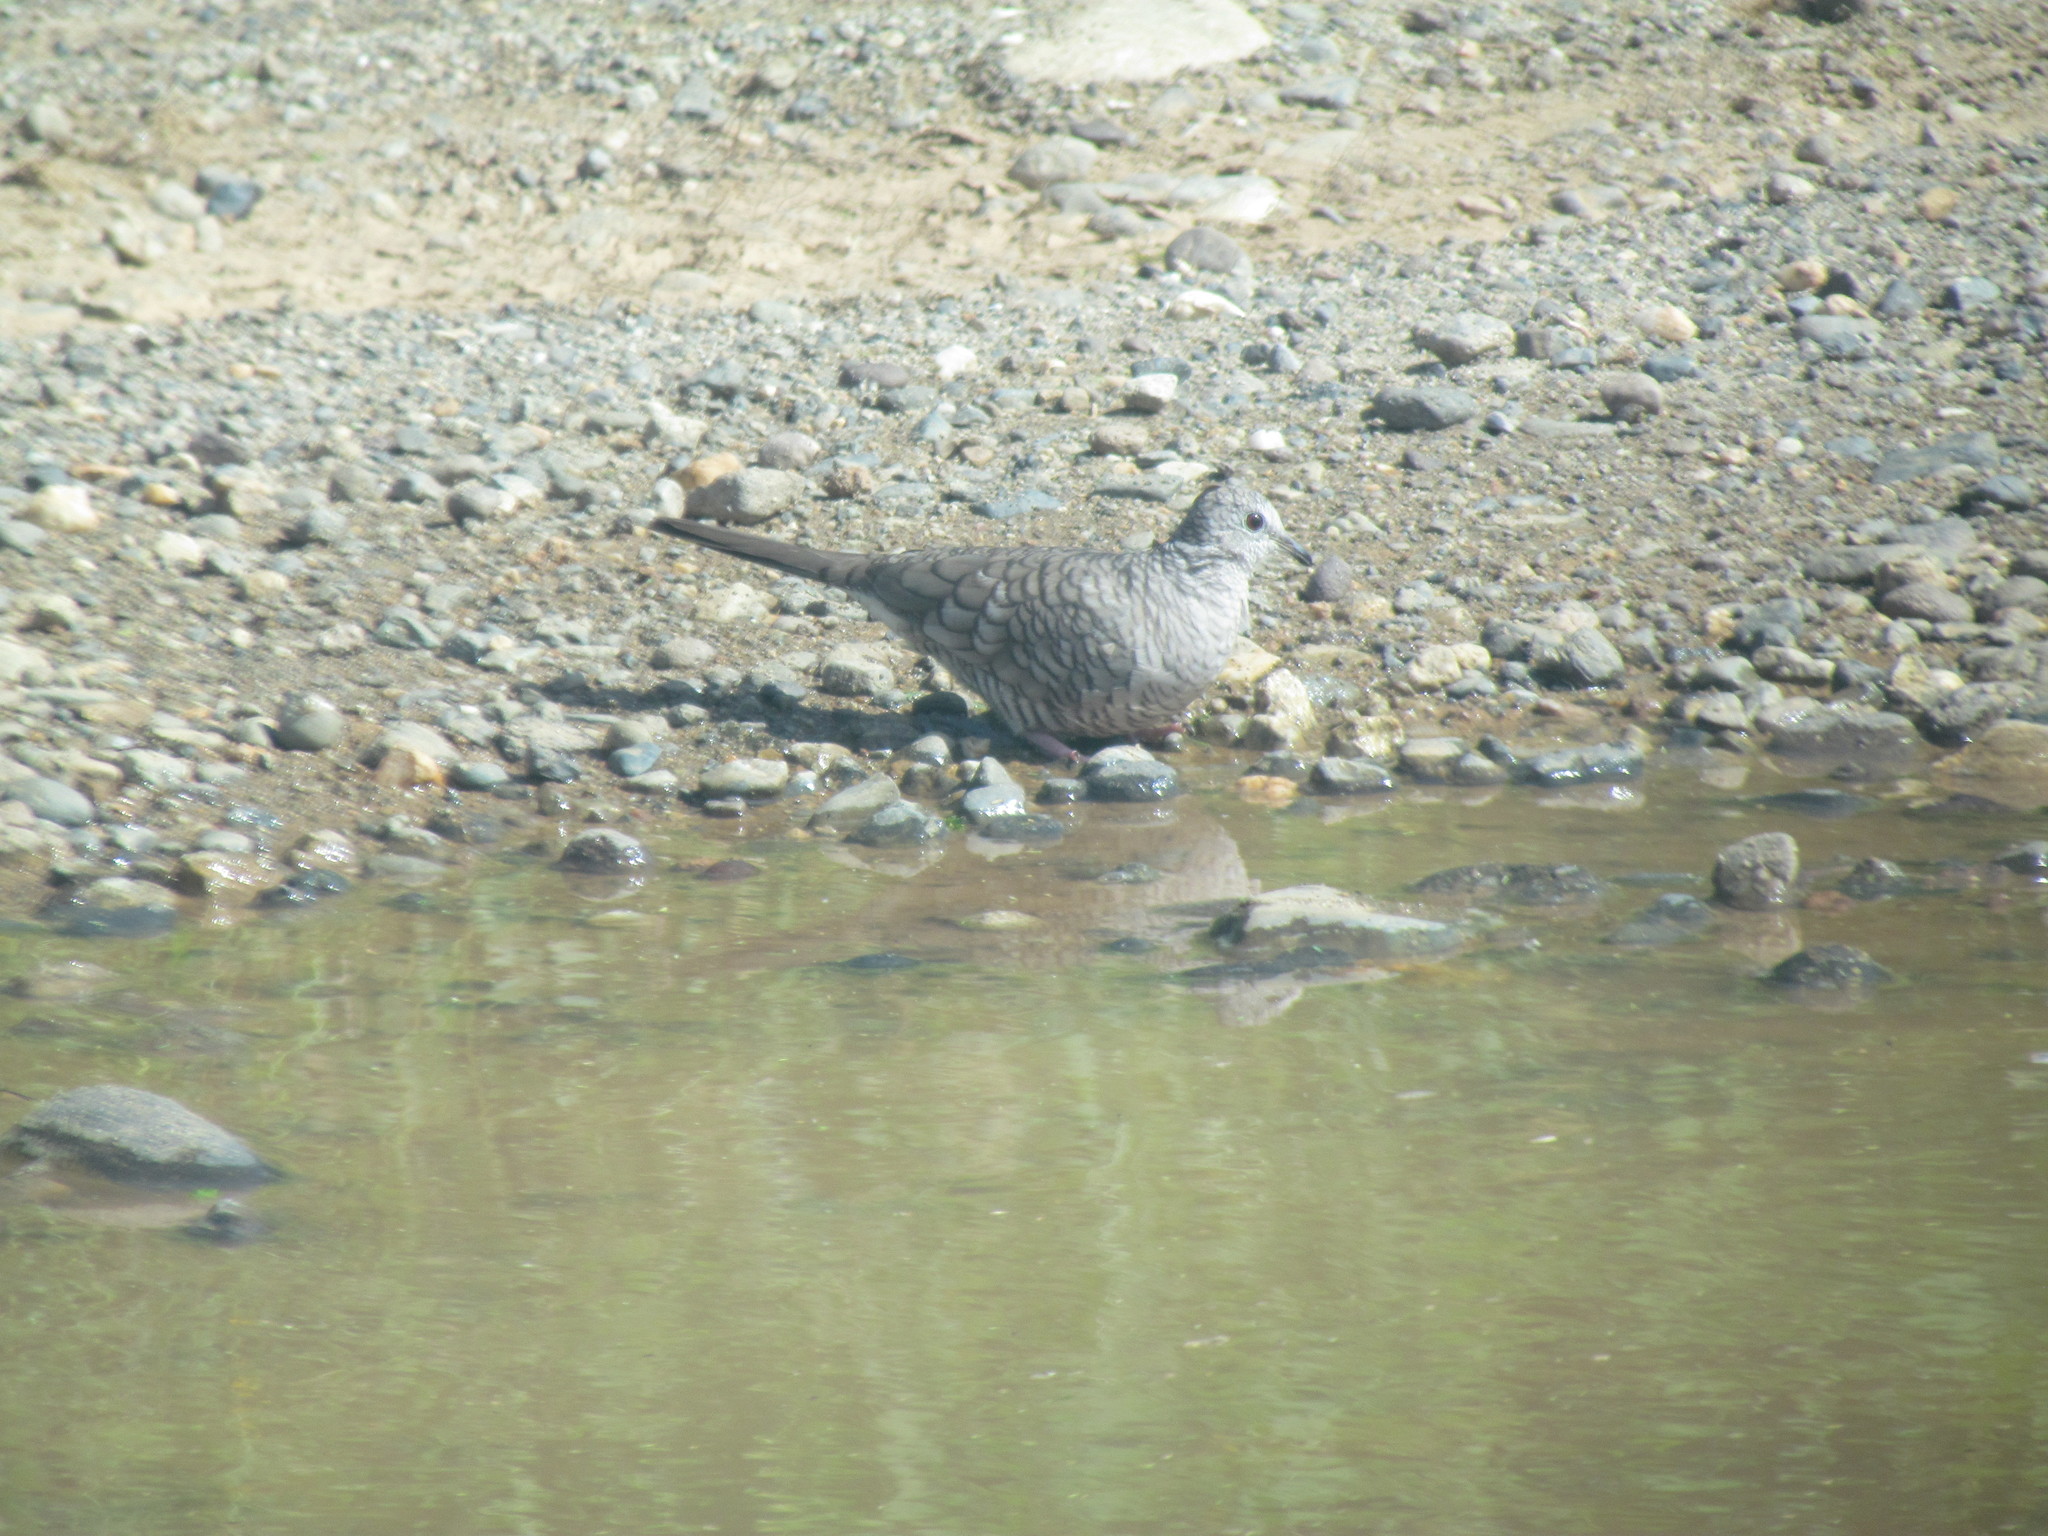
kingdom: Animalia
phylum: Chordata
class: Aves
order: Columbiformes
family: Columbidae
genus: Columbina
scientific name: Columbina inca
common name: Inca dove
